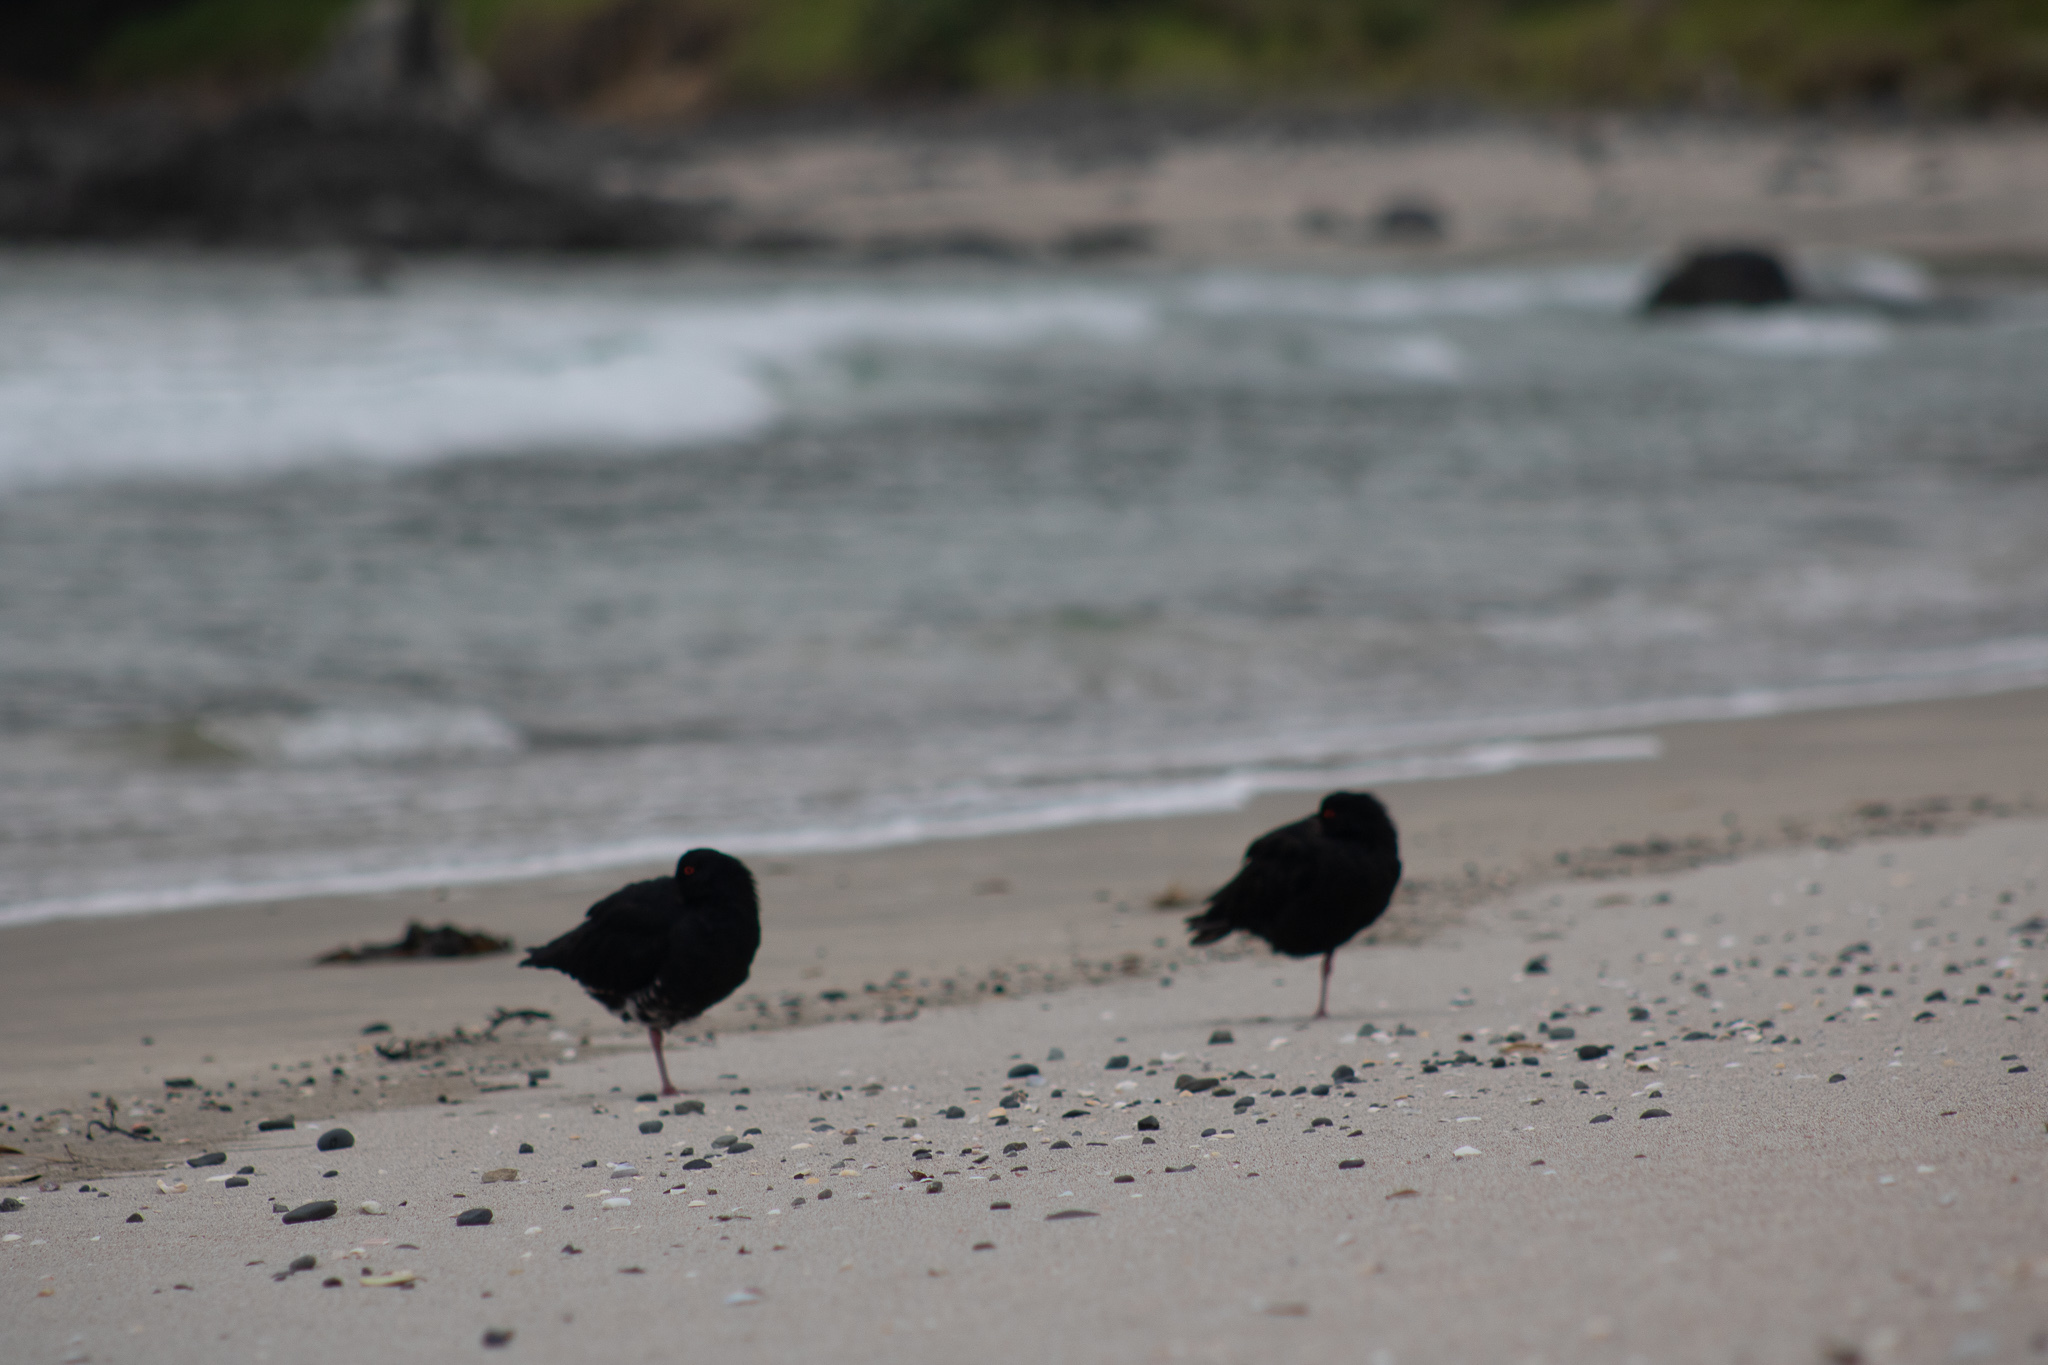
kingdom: Animalia
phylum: Chordata
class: Aves
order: Charadriiformes
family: Haematopodidae
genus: Haematopus
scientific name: Haematopus unicolor
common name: Variable oystercatcher
